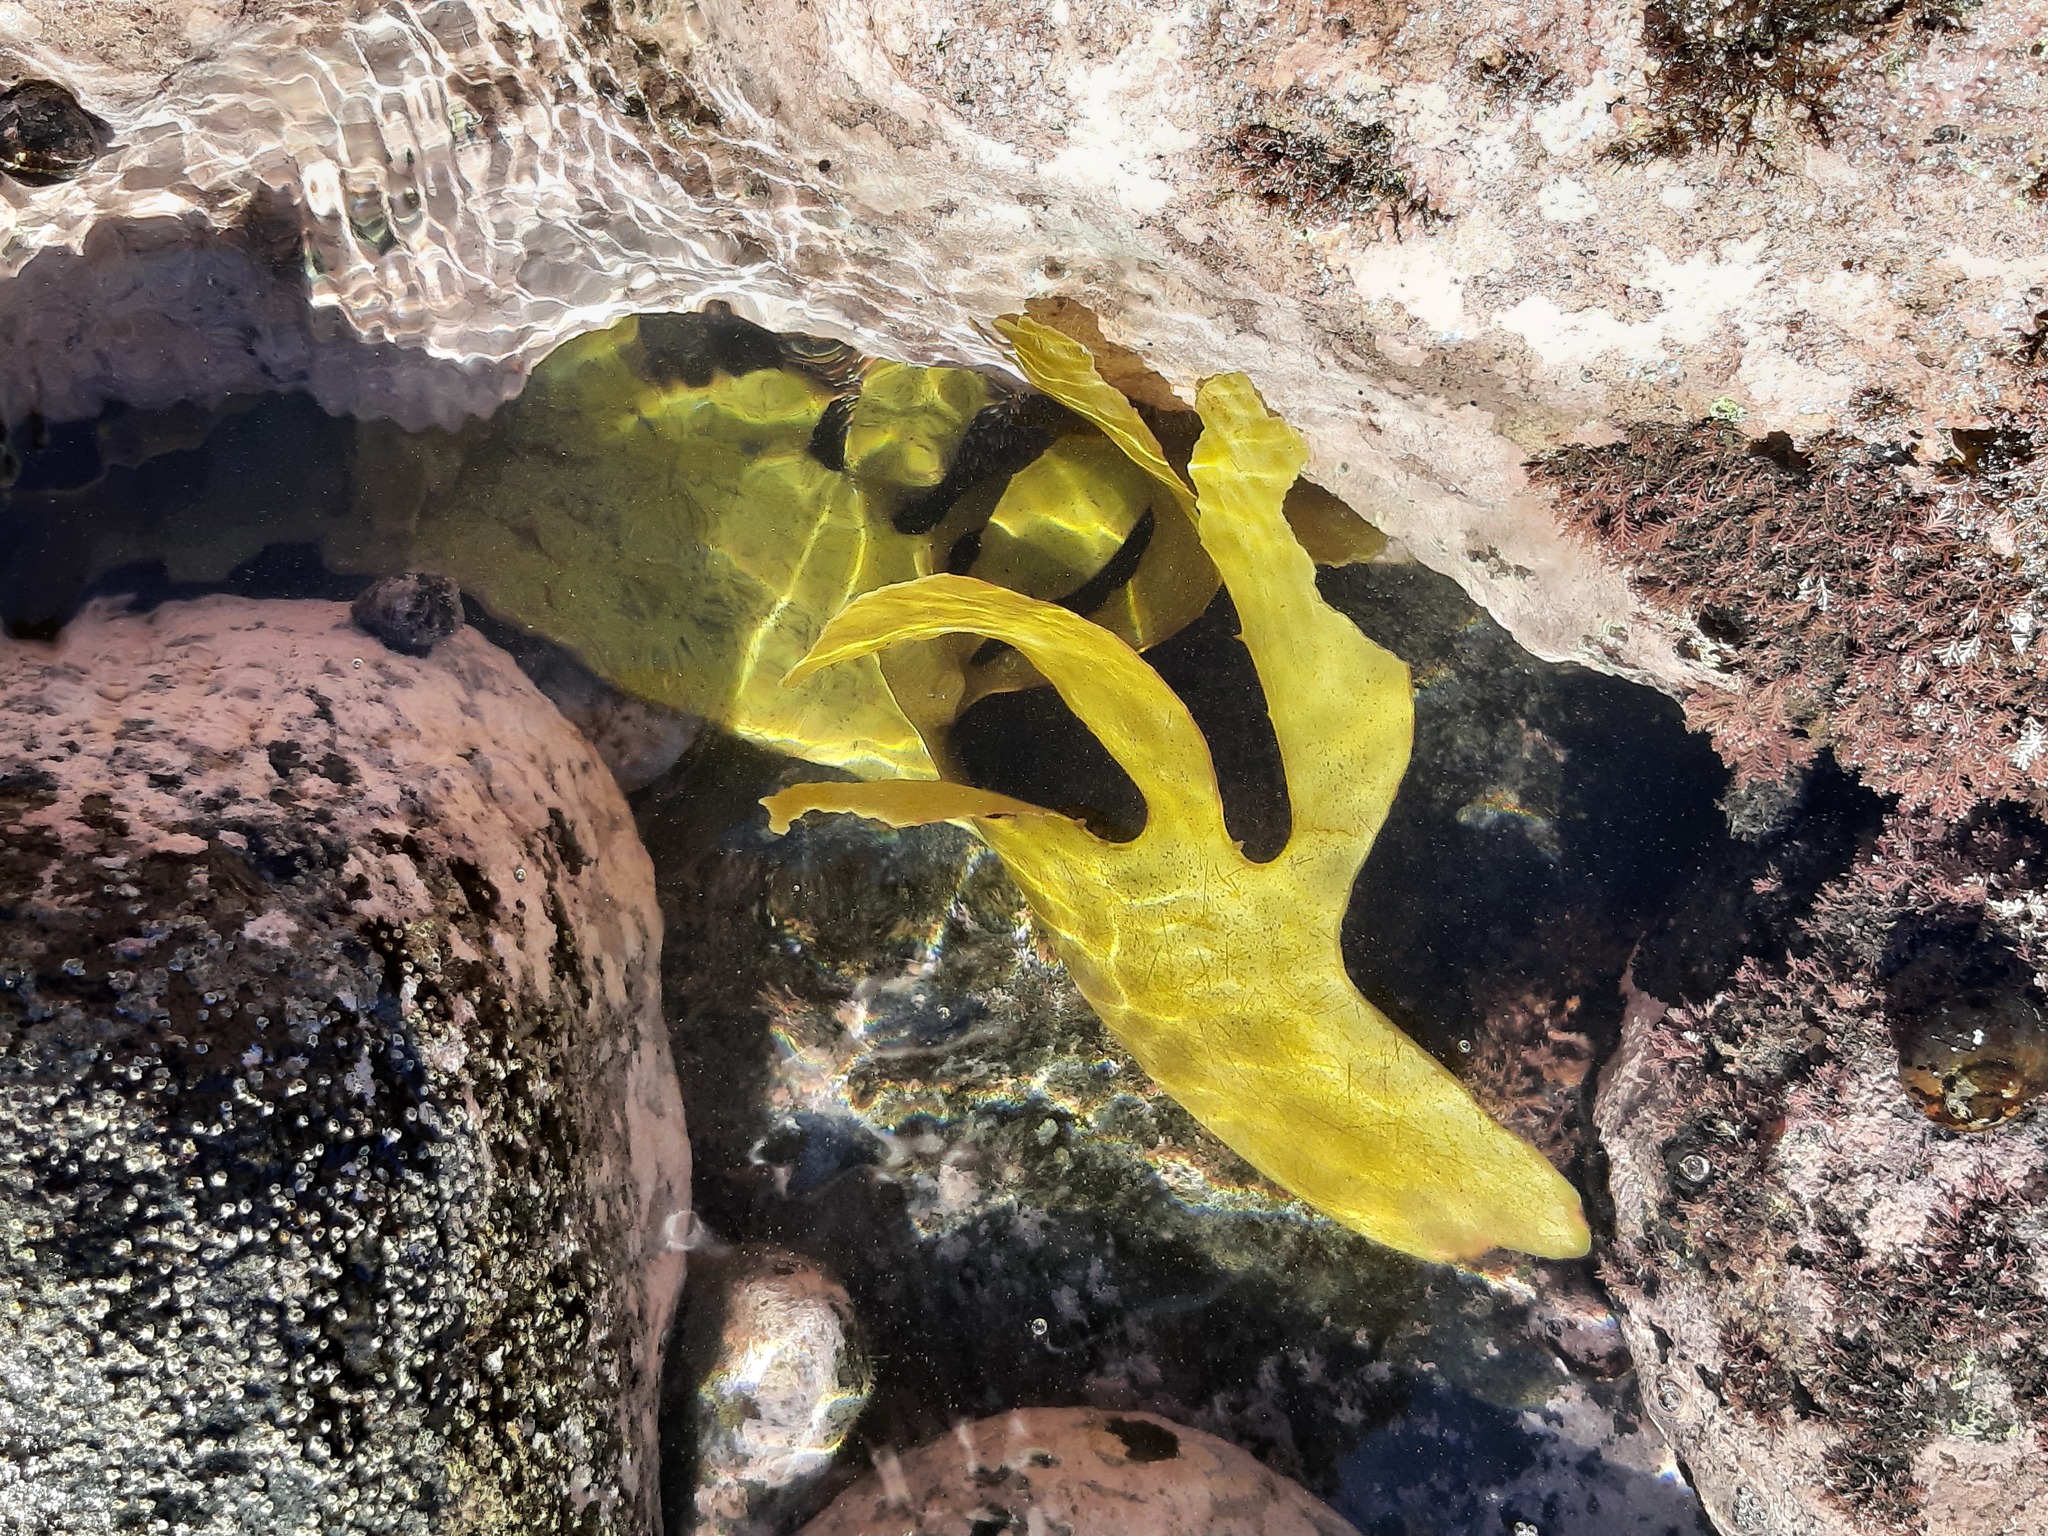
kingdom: Chromista
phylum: Ochrophyta
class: Phaeophyceae
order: Laminariales
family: Lessoniaceae
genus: Ecklonia
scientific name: Ecklonia radiata
